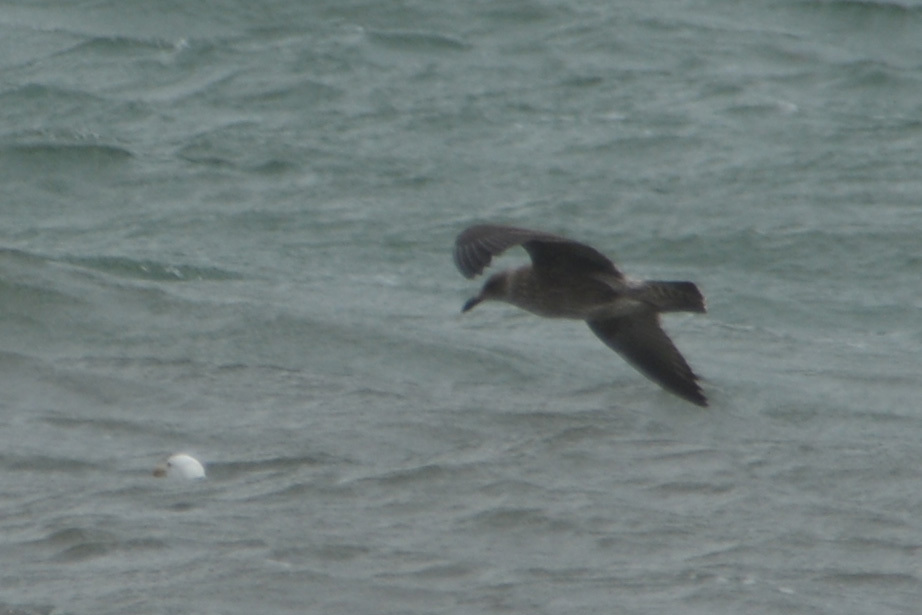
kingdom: Animalia
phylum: Chordata
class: Aves
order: Charadriiformes
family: Laridae
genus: Larus
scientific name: Larus dominicanus
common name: Kelp gull
